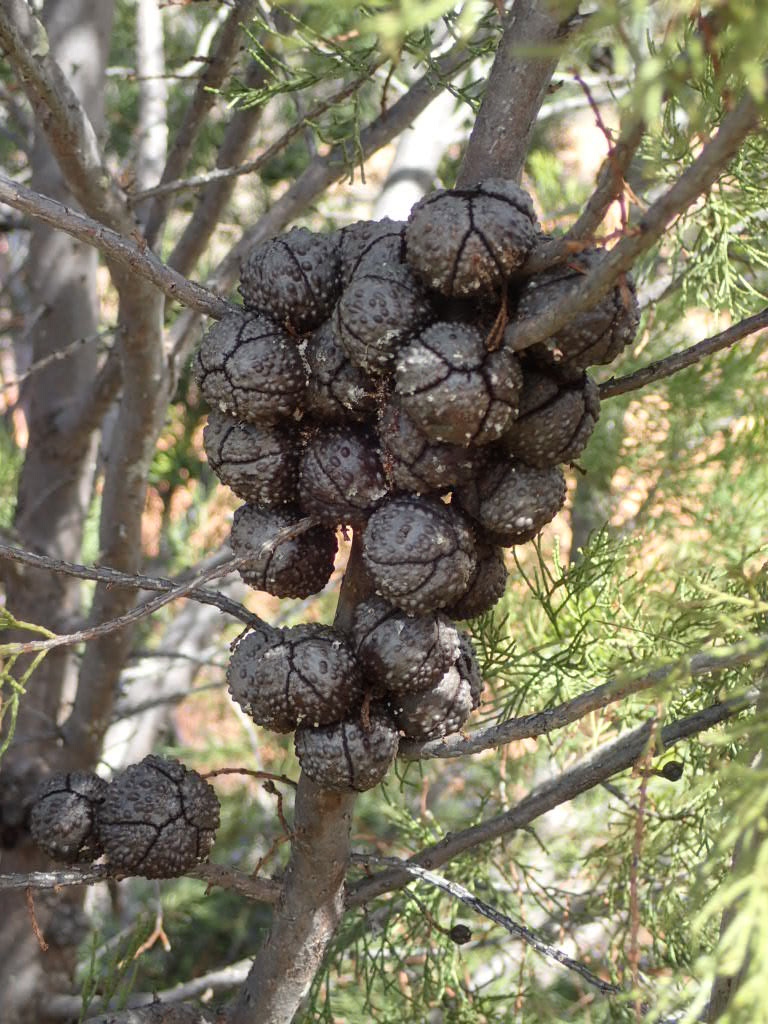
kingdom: Plantae
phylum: Tracheophyta
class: Pinopsida
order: Pinales
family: Cupressaceae
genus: Callitris
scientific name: Callitris verrucosa
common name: Scrub cypress-pine
